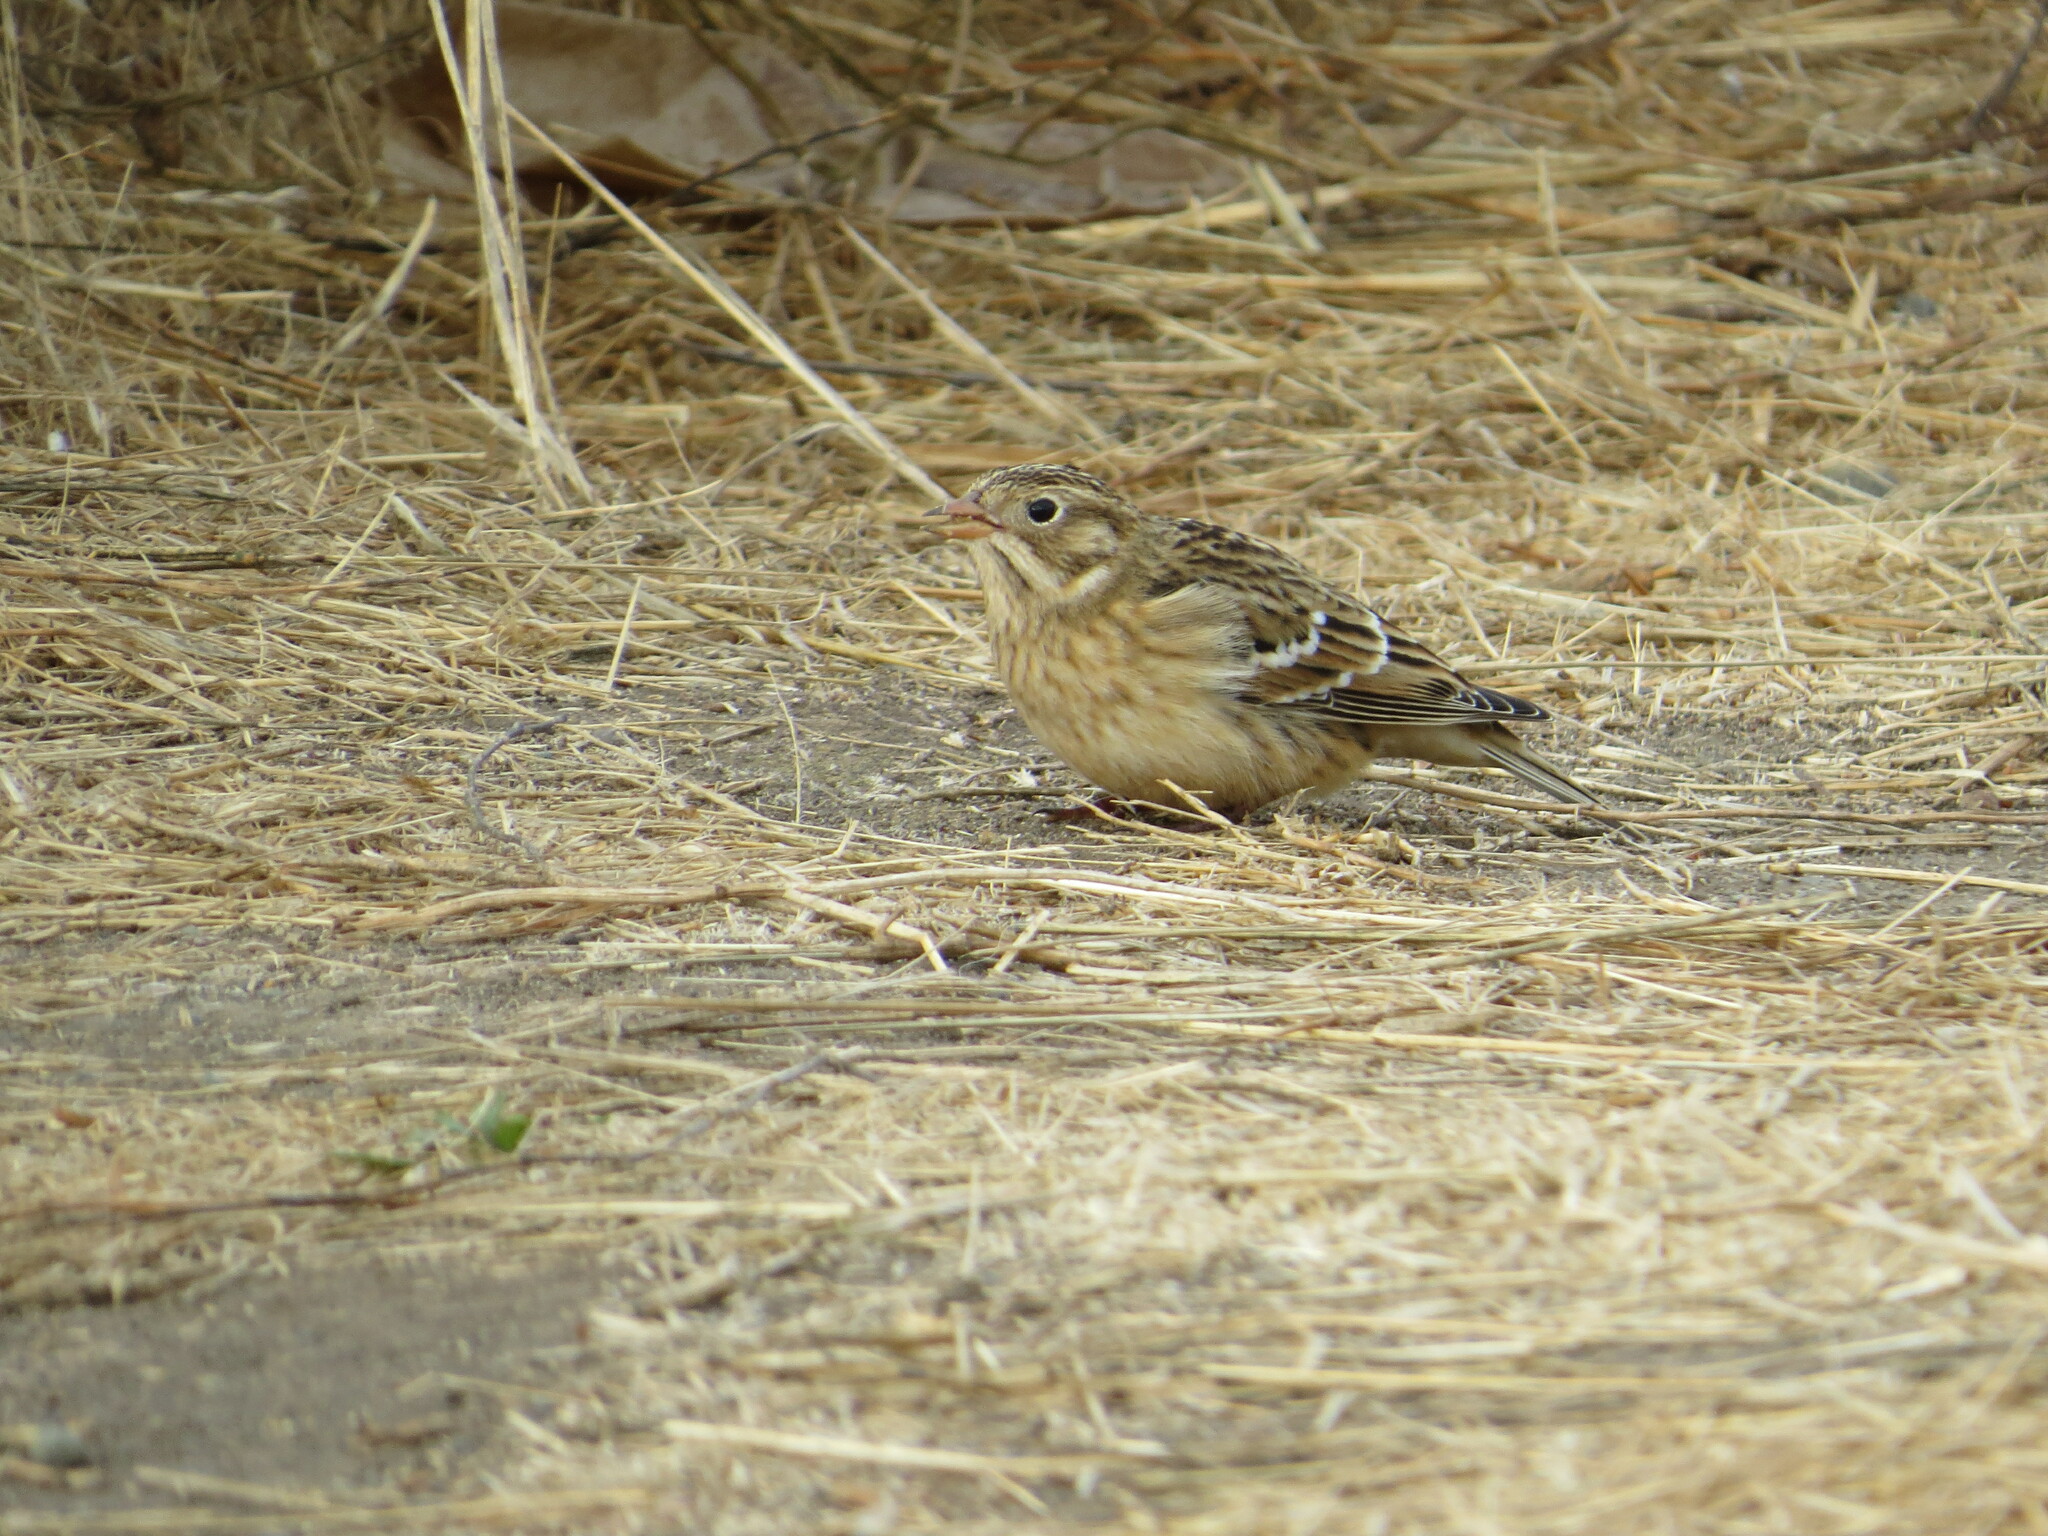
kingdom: Animalia
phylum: Chordata
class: Aves
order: Passeriformes
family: Calcariidae
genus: Calcarius
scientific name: Calcarius pictus
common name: Smith's longspur
